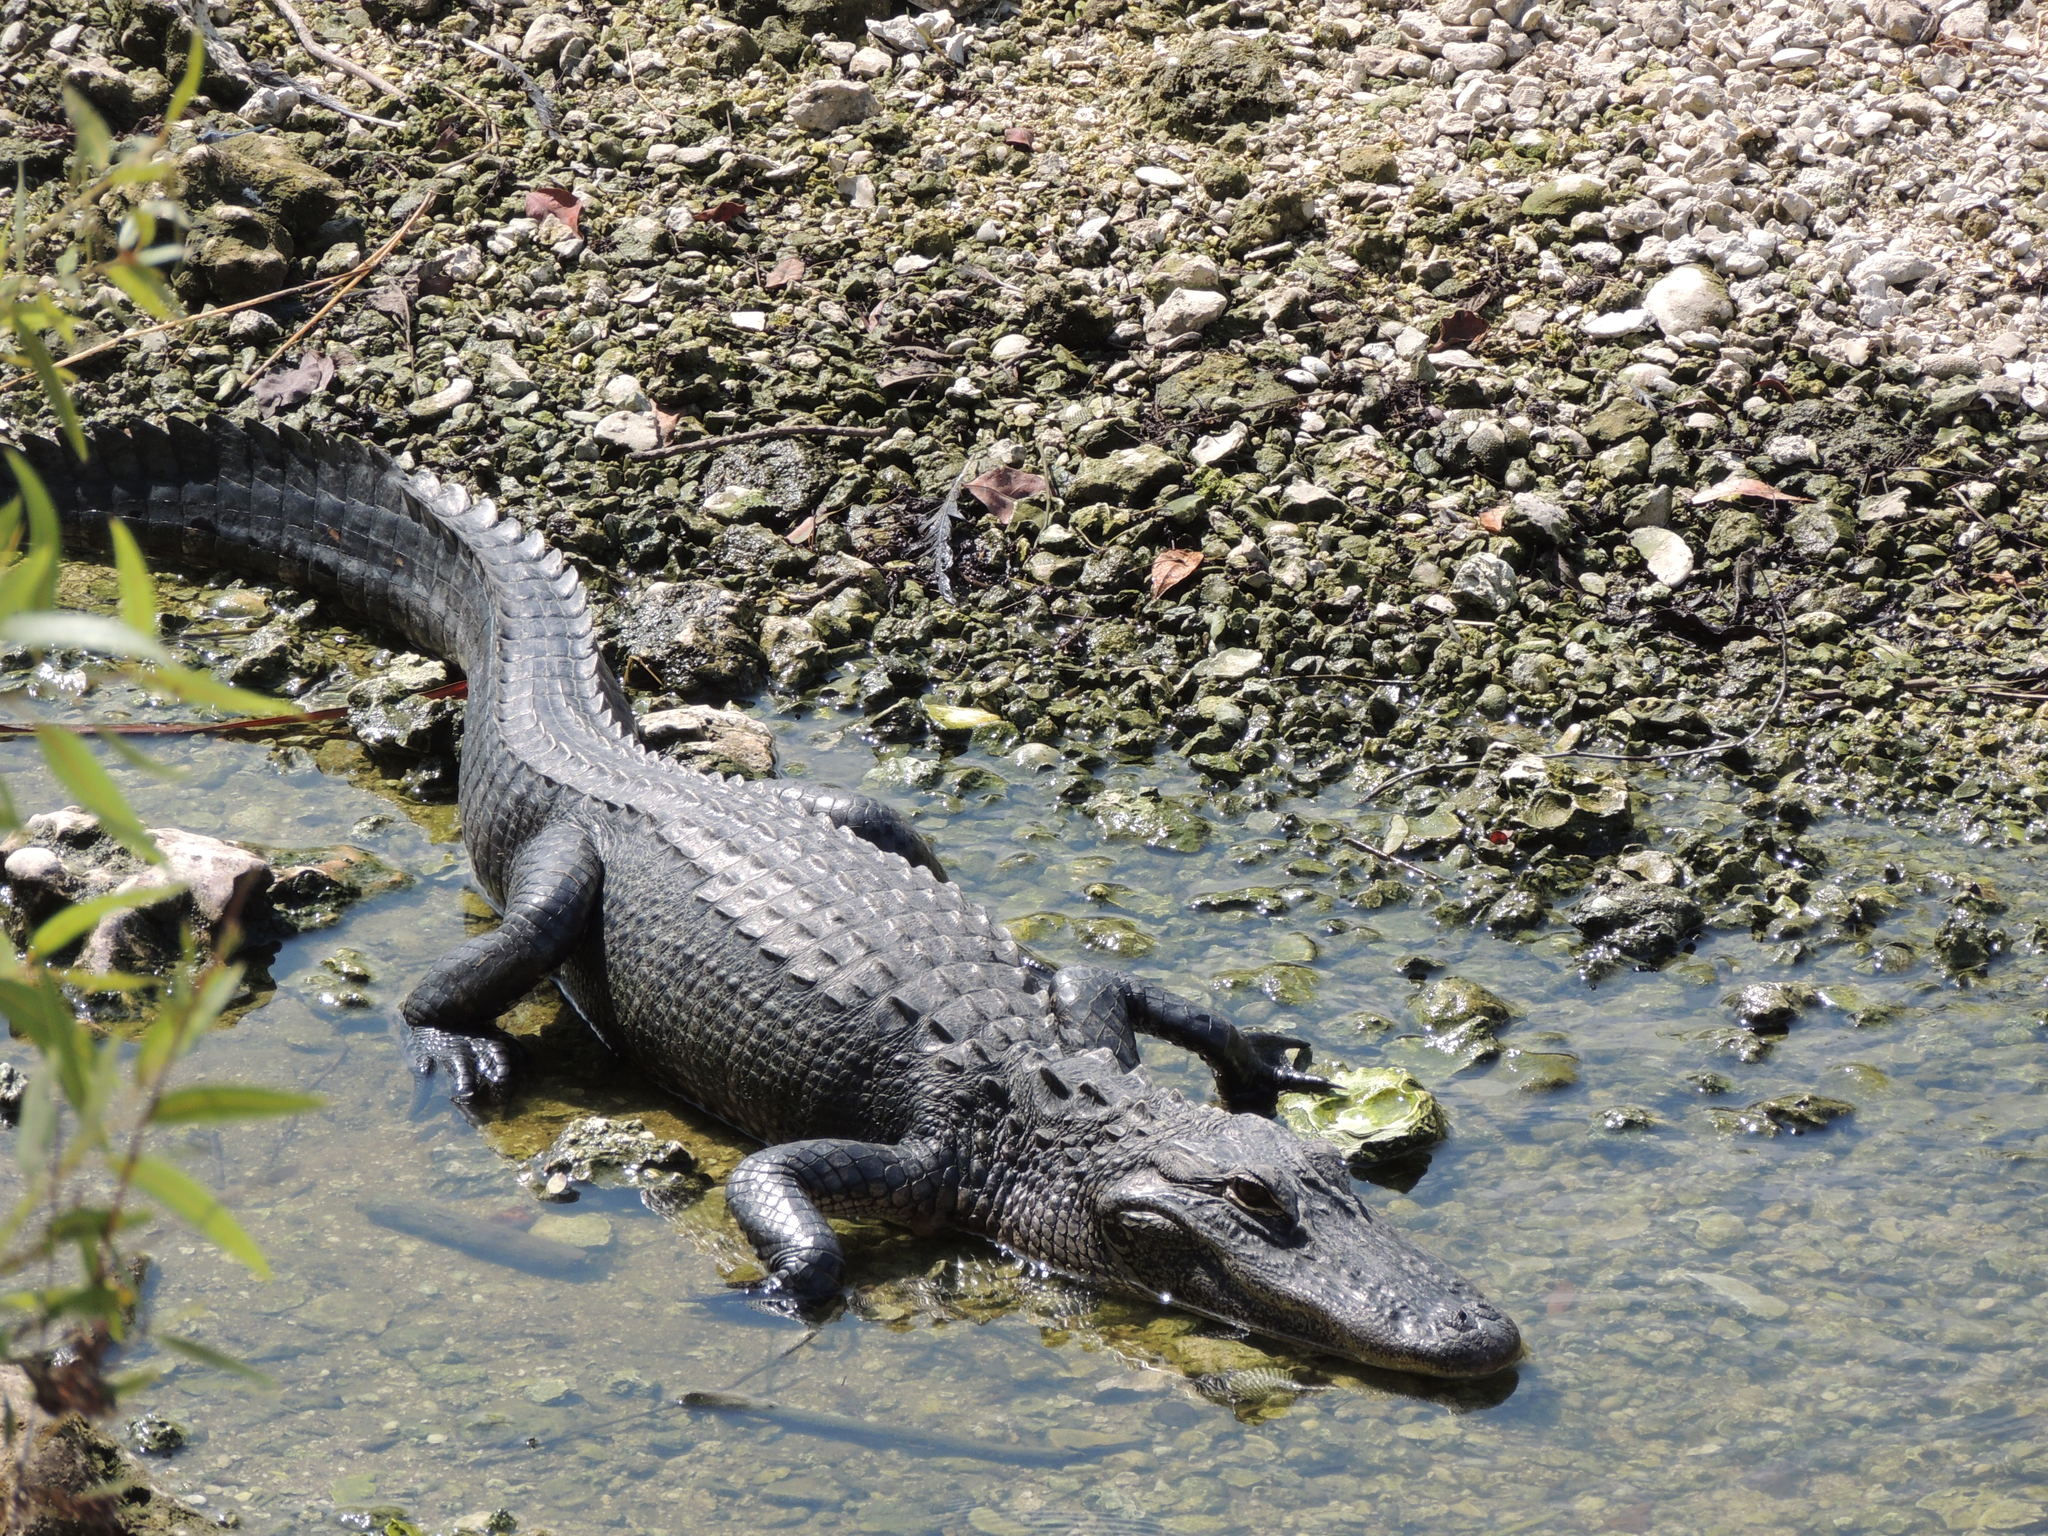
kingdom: Animalia
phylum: Chordata
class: Crocodylia
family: Alligatoridae
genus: Alligator
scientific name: Alligator mississippiensis
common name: American alligator
